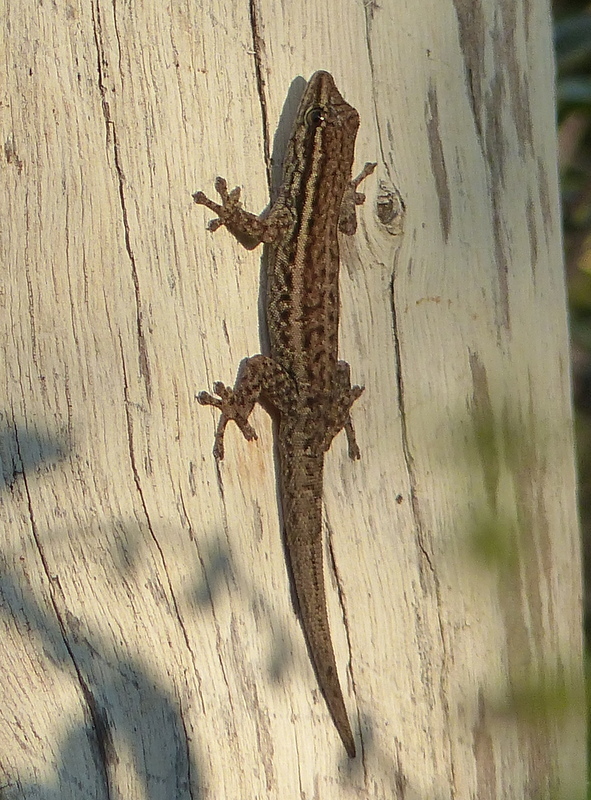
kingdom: Animalia
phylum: Chordata
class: Squamata
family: Gekkonidae
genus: Lygodactylus
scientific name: Lygodactylus capensis
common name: Cape dwarf gecko
